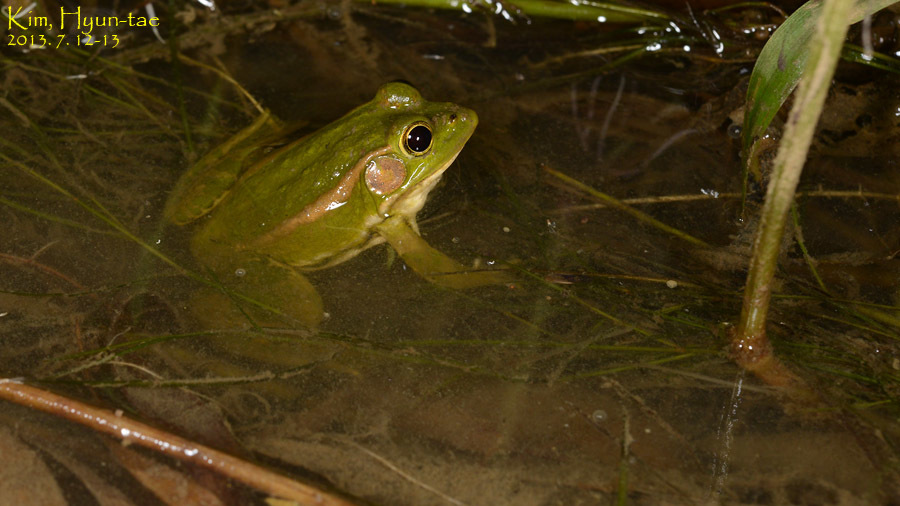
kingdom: Animalia
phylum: Chordata
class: Amphibia
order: Anura
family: Ranidae
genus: Pelophylax
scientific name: Pelophylax chosenicus
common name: Gold-spotted pond frog
